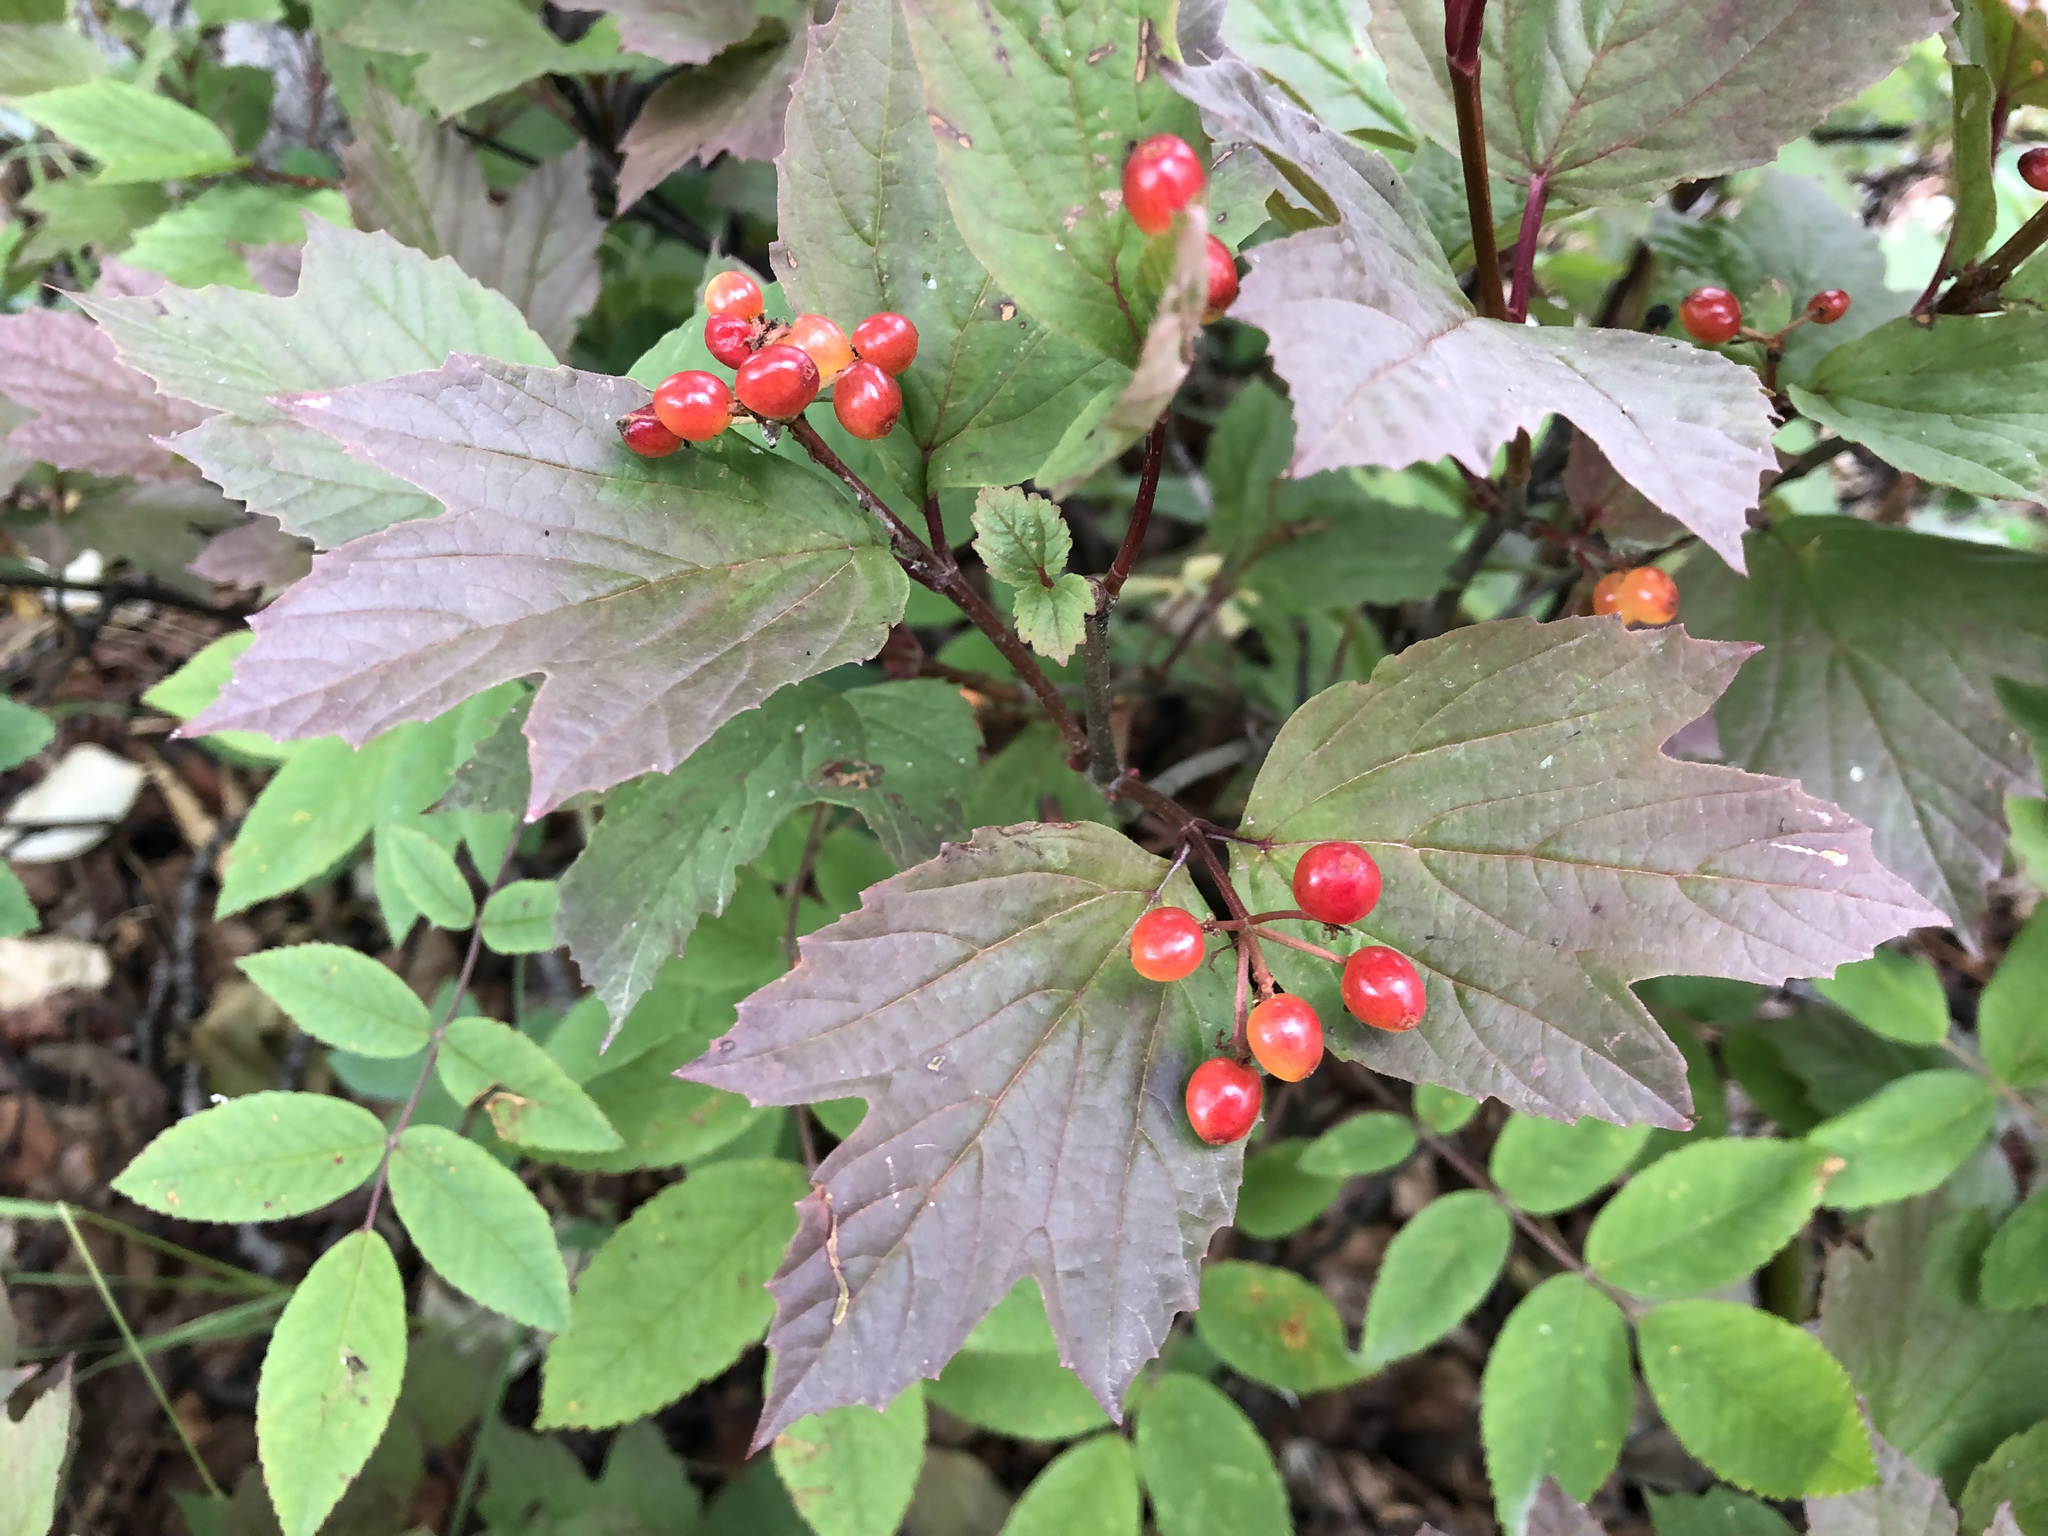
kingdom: Plantae
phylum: Tracheophyta
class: Magnoliopsida
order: Dipsacales
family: Viburnaceae
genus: Viburnum
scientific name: Viburnum edule
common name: Mooseberry
